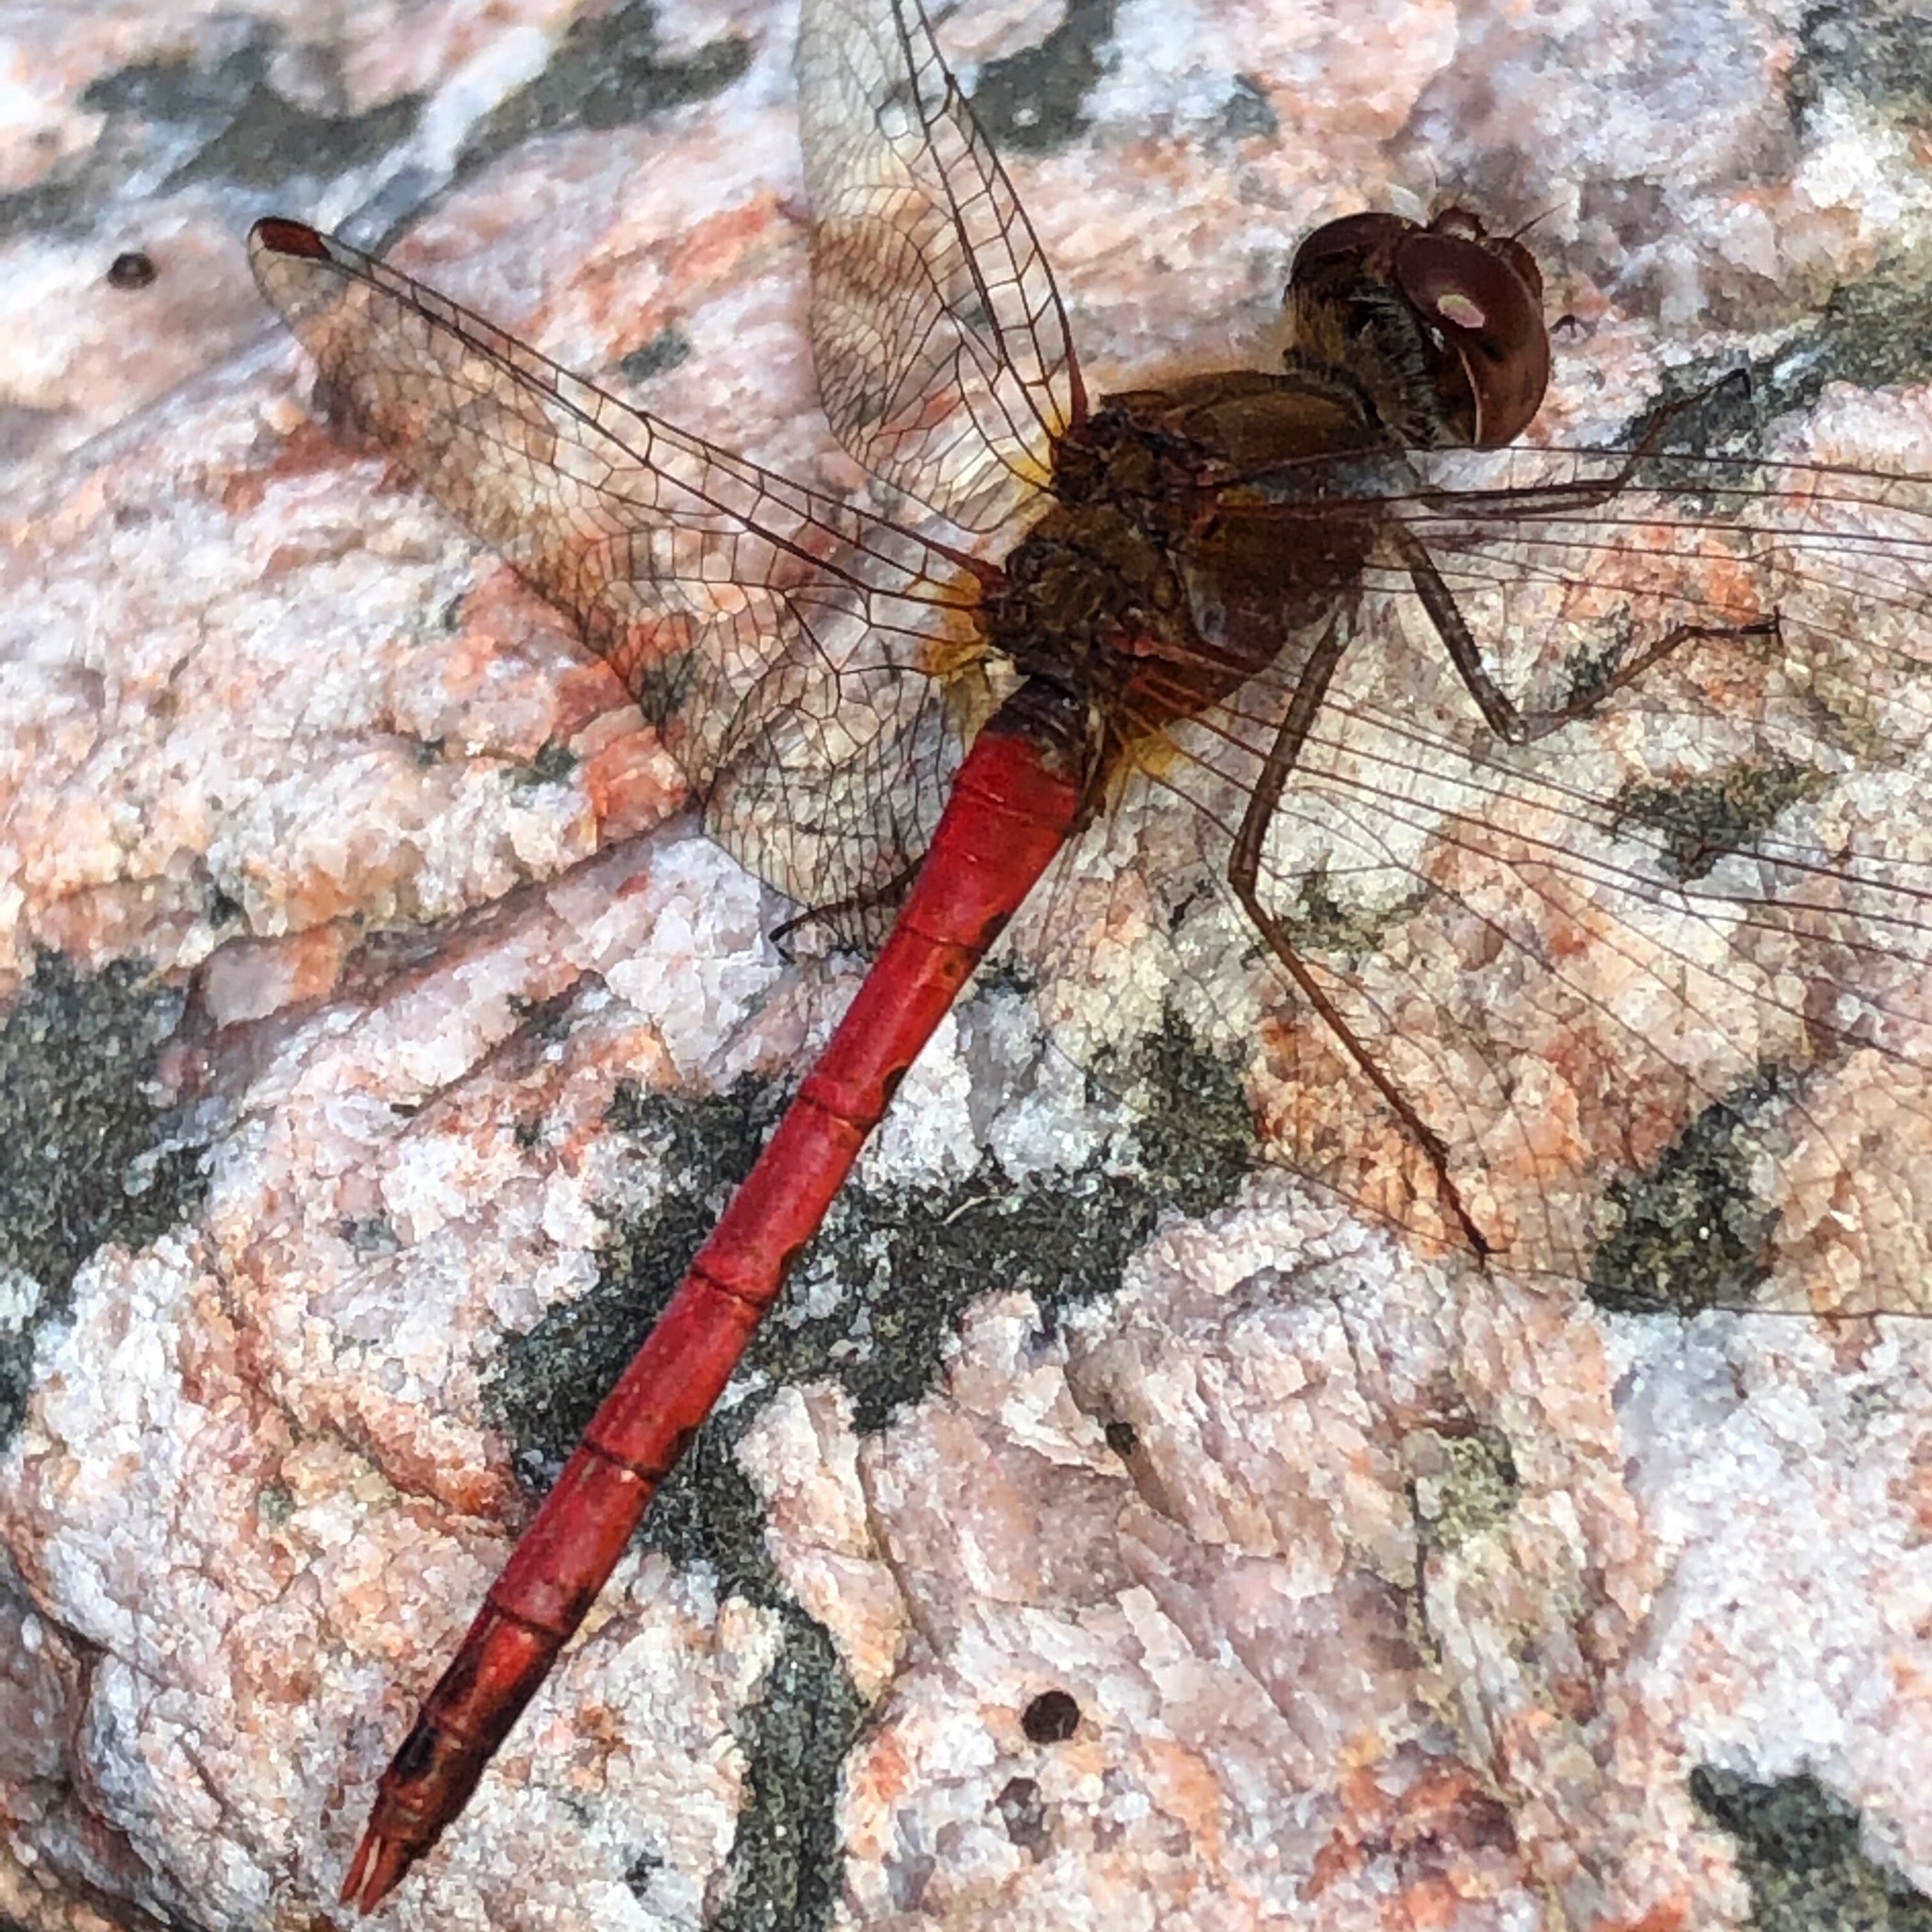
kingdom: Animalia
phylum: Arthropoda
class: Insecta
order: Odonata
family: Libellulidae
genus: Sympetrum
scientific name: Sympetrum vicinum
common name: Autumn meadowhawk
